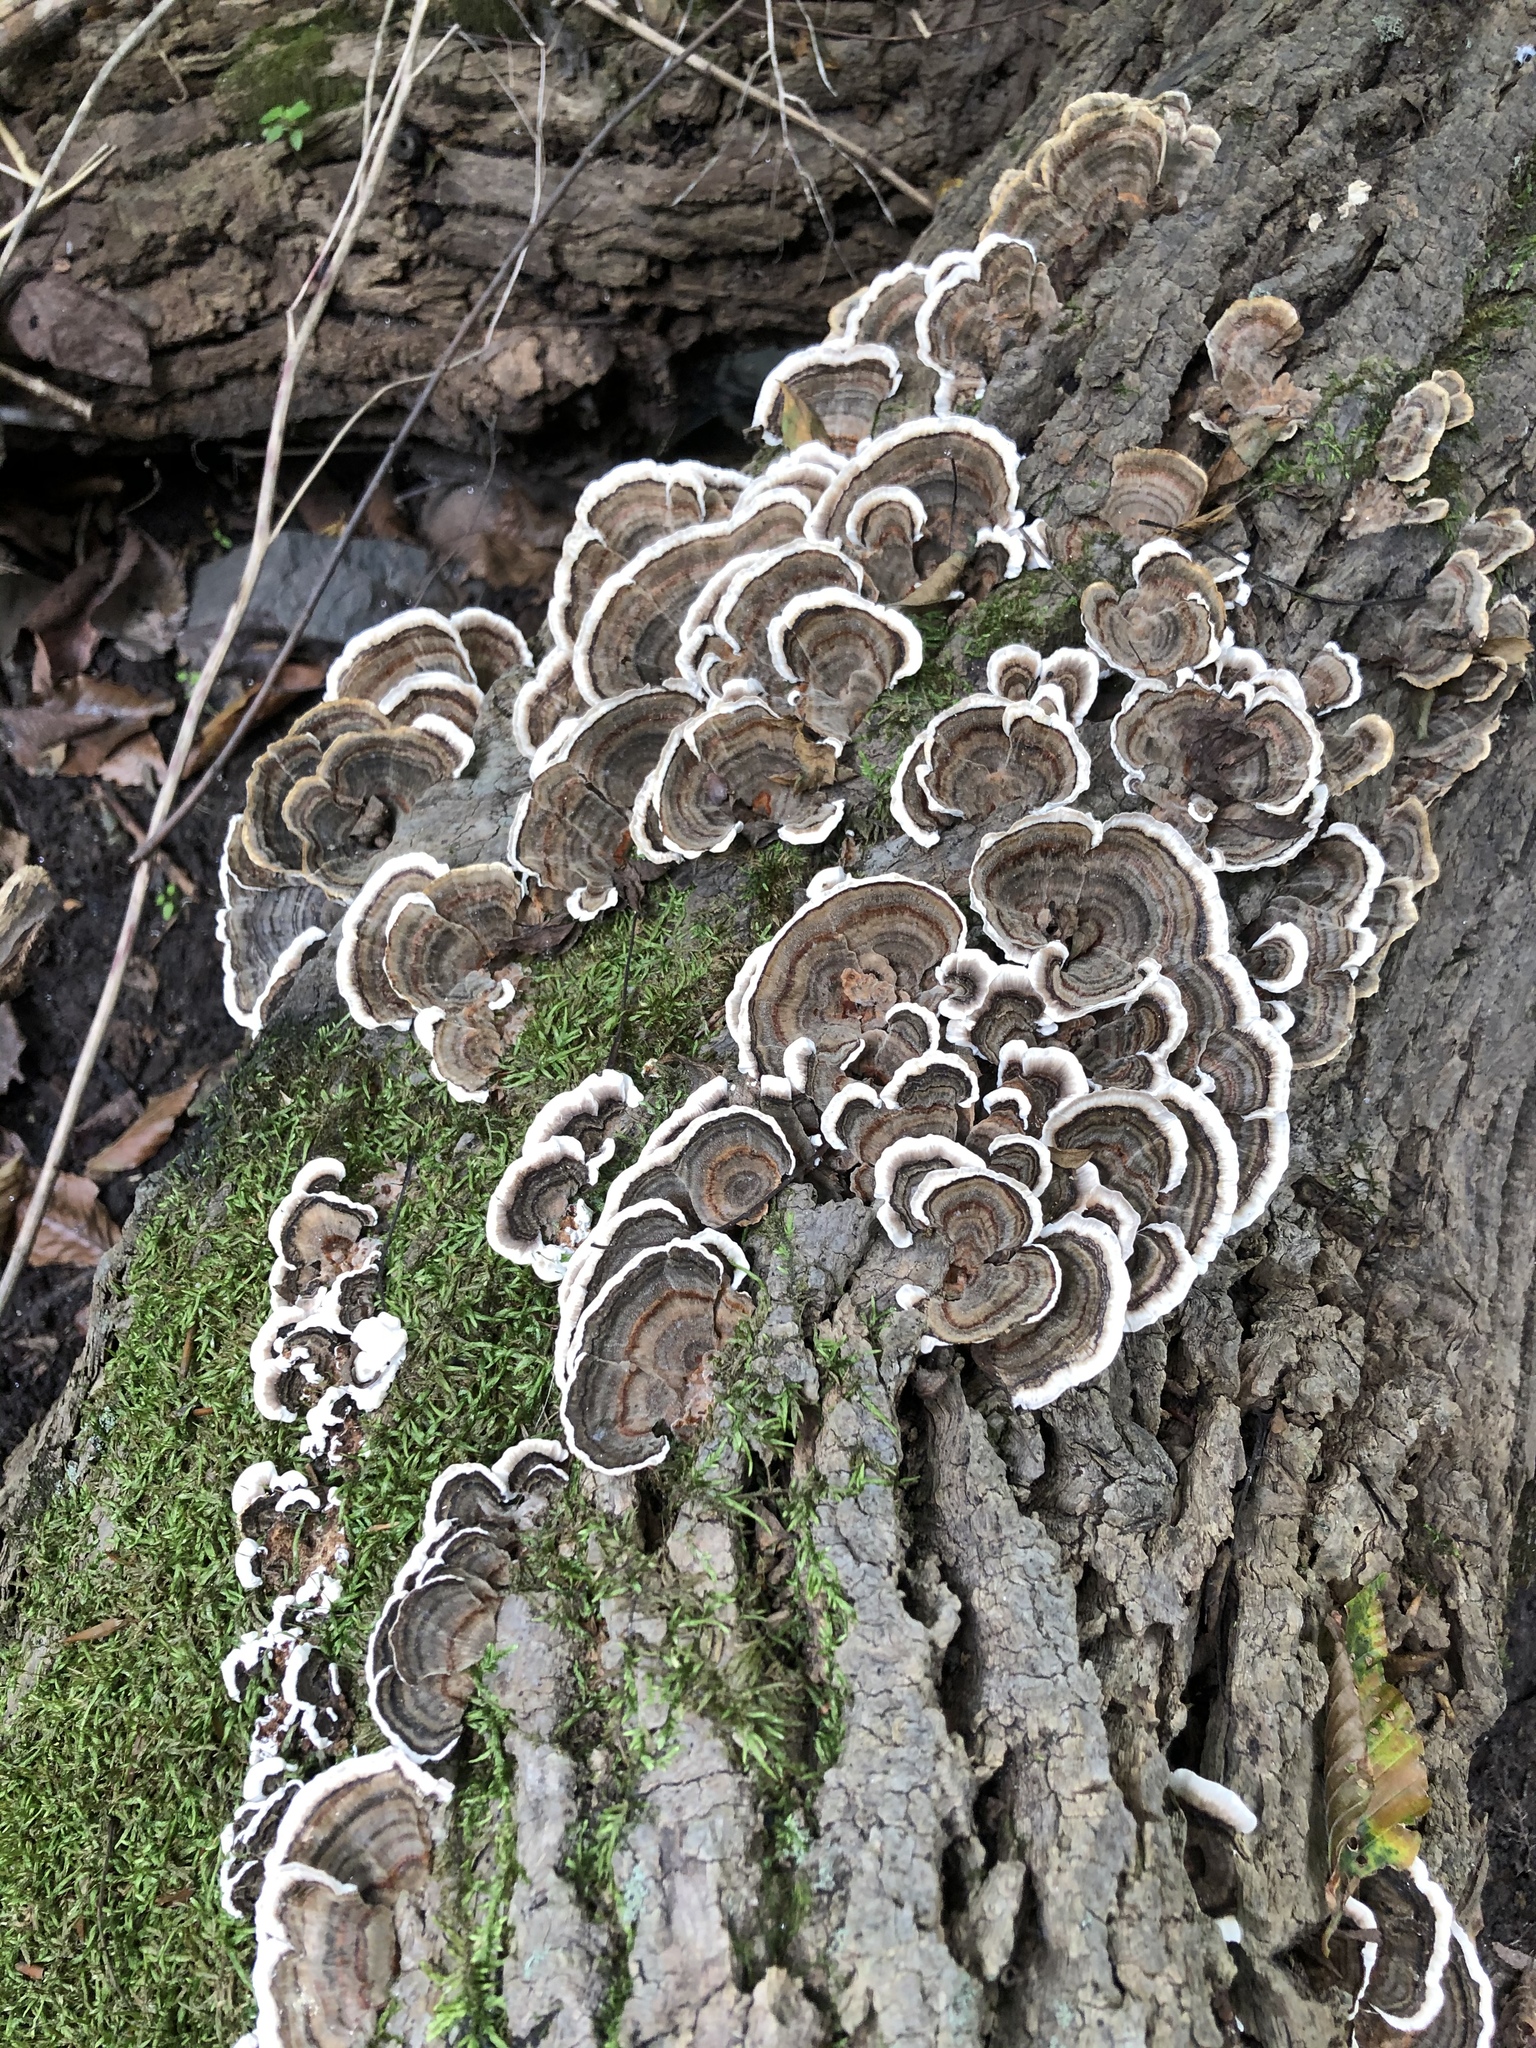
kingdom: Fungi
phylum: Basidiomycota
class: Agaricomycetes
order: Polyporales
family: Polyporaceae
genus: Trametes
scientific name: Trametes versicolor
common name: Turkeytail
